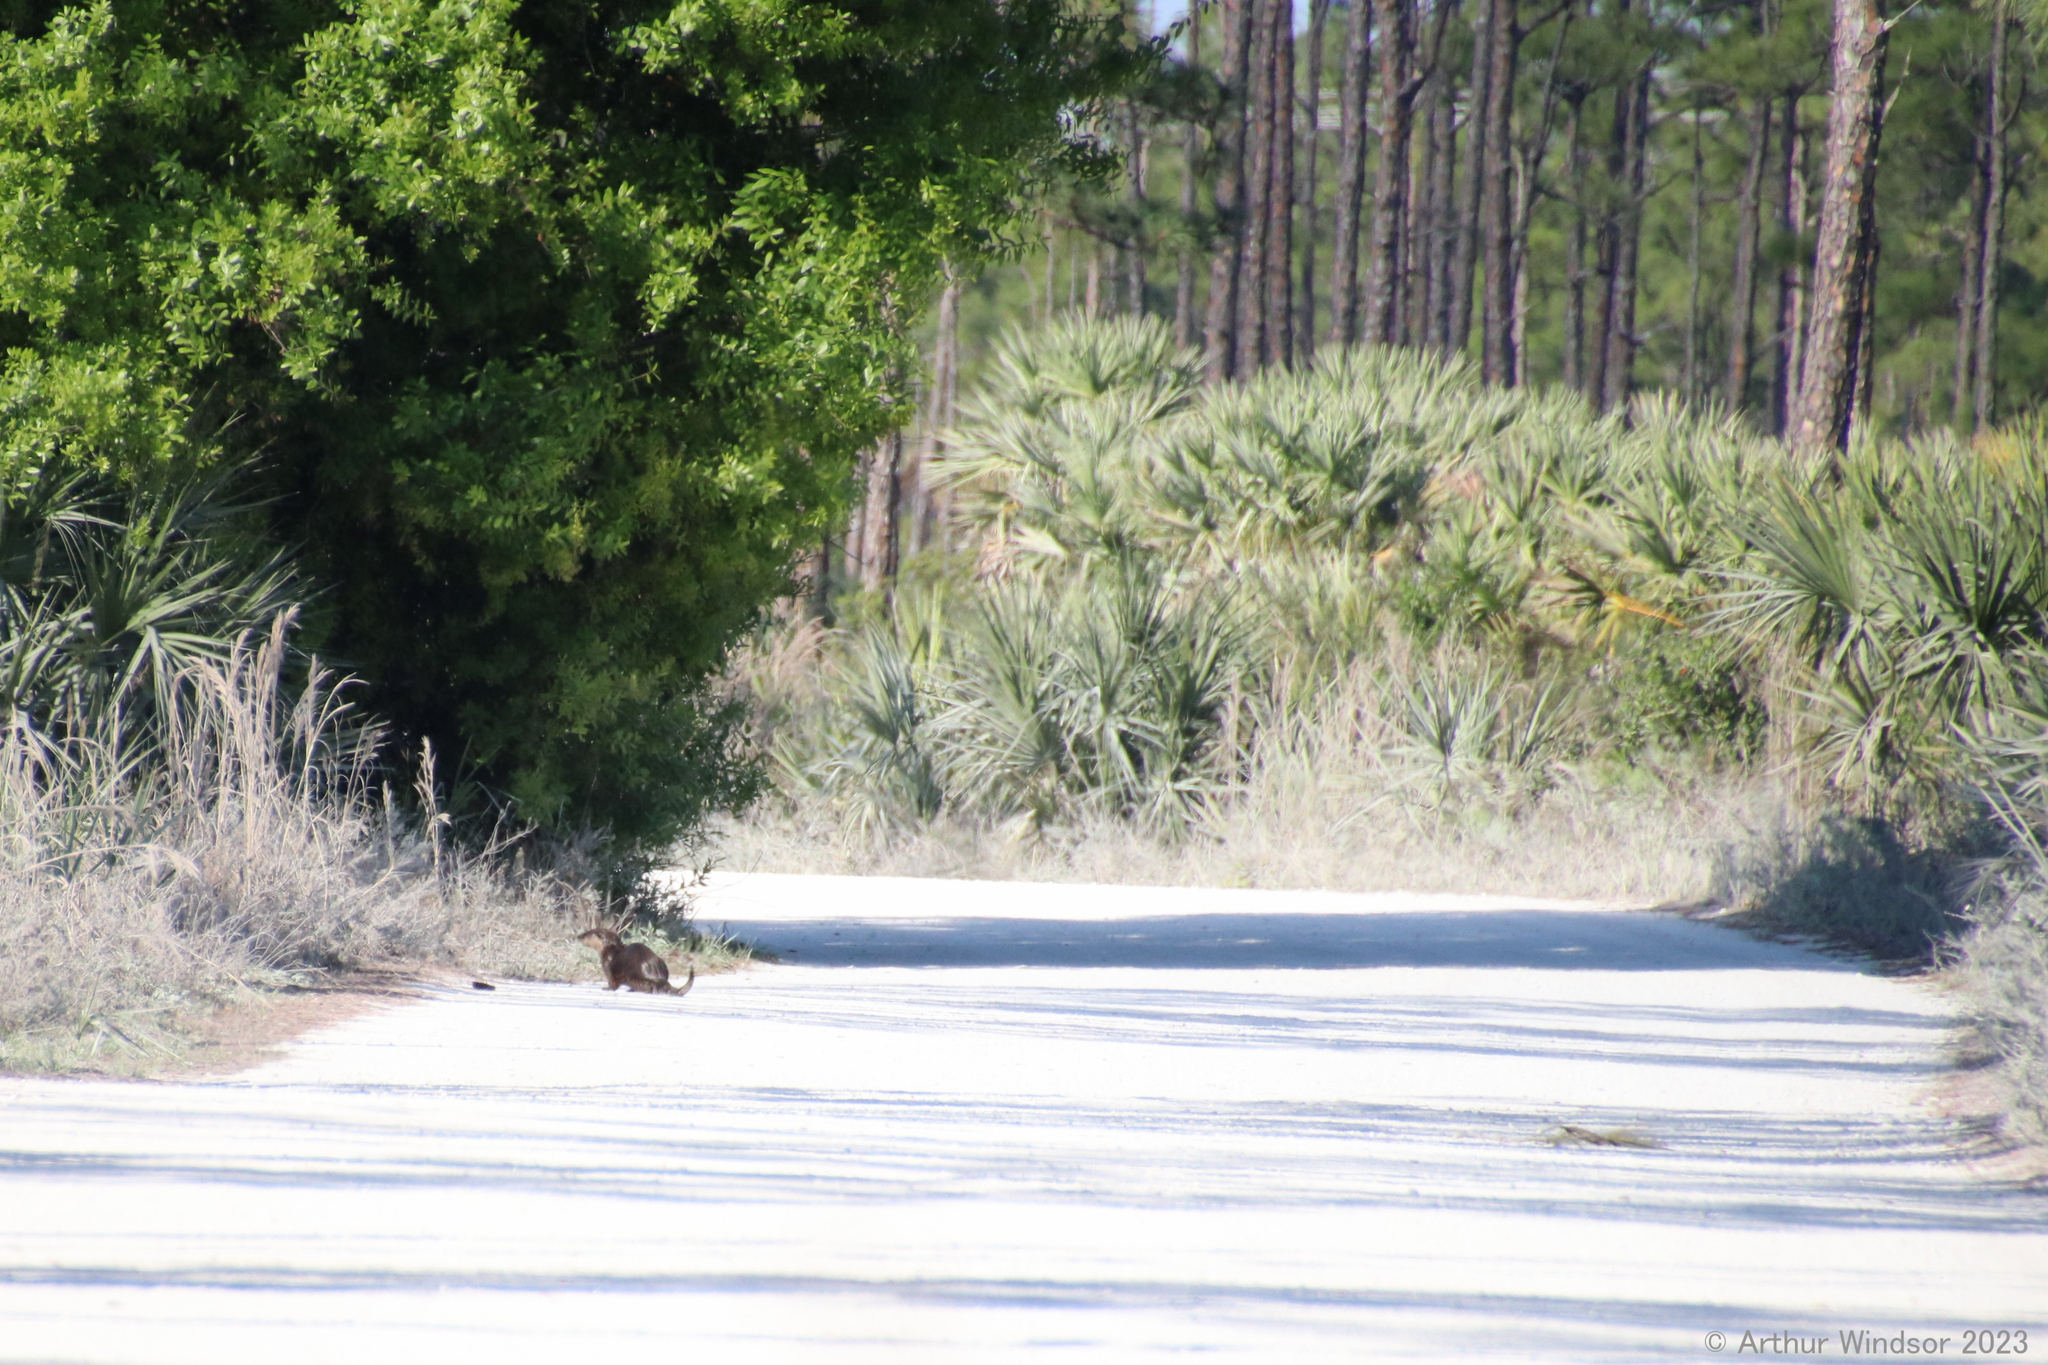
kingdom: Animalia
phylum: Chordata
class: Mammalia
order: Carnivora
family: Mustelidae
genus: Lontra
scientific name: Lontra canadensis
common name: North american river otter
